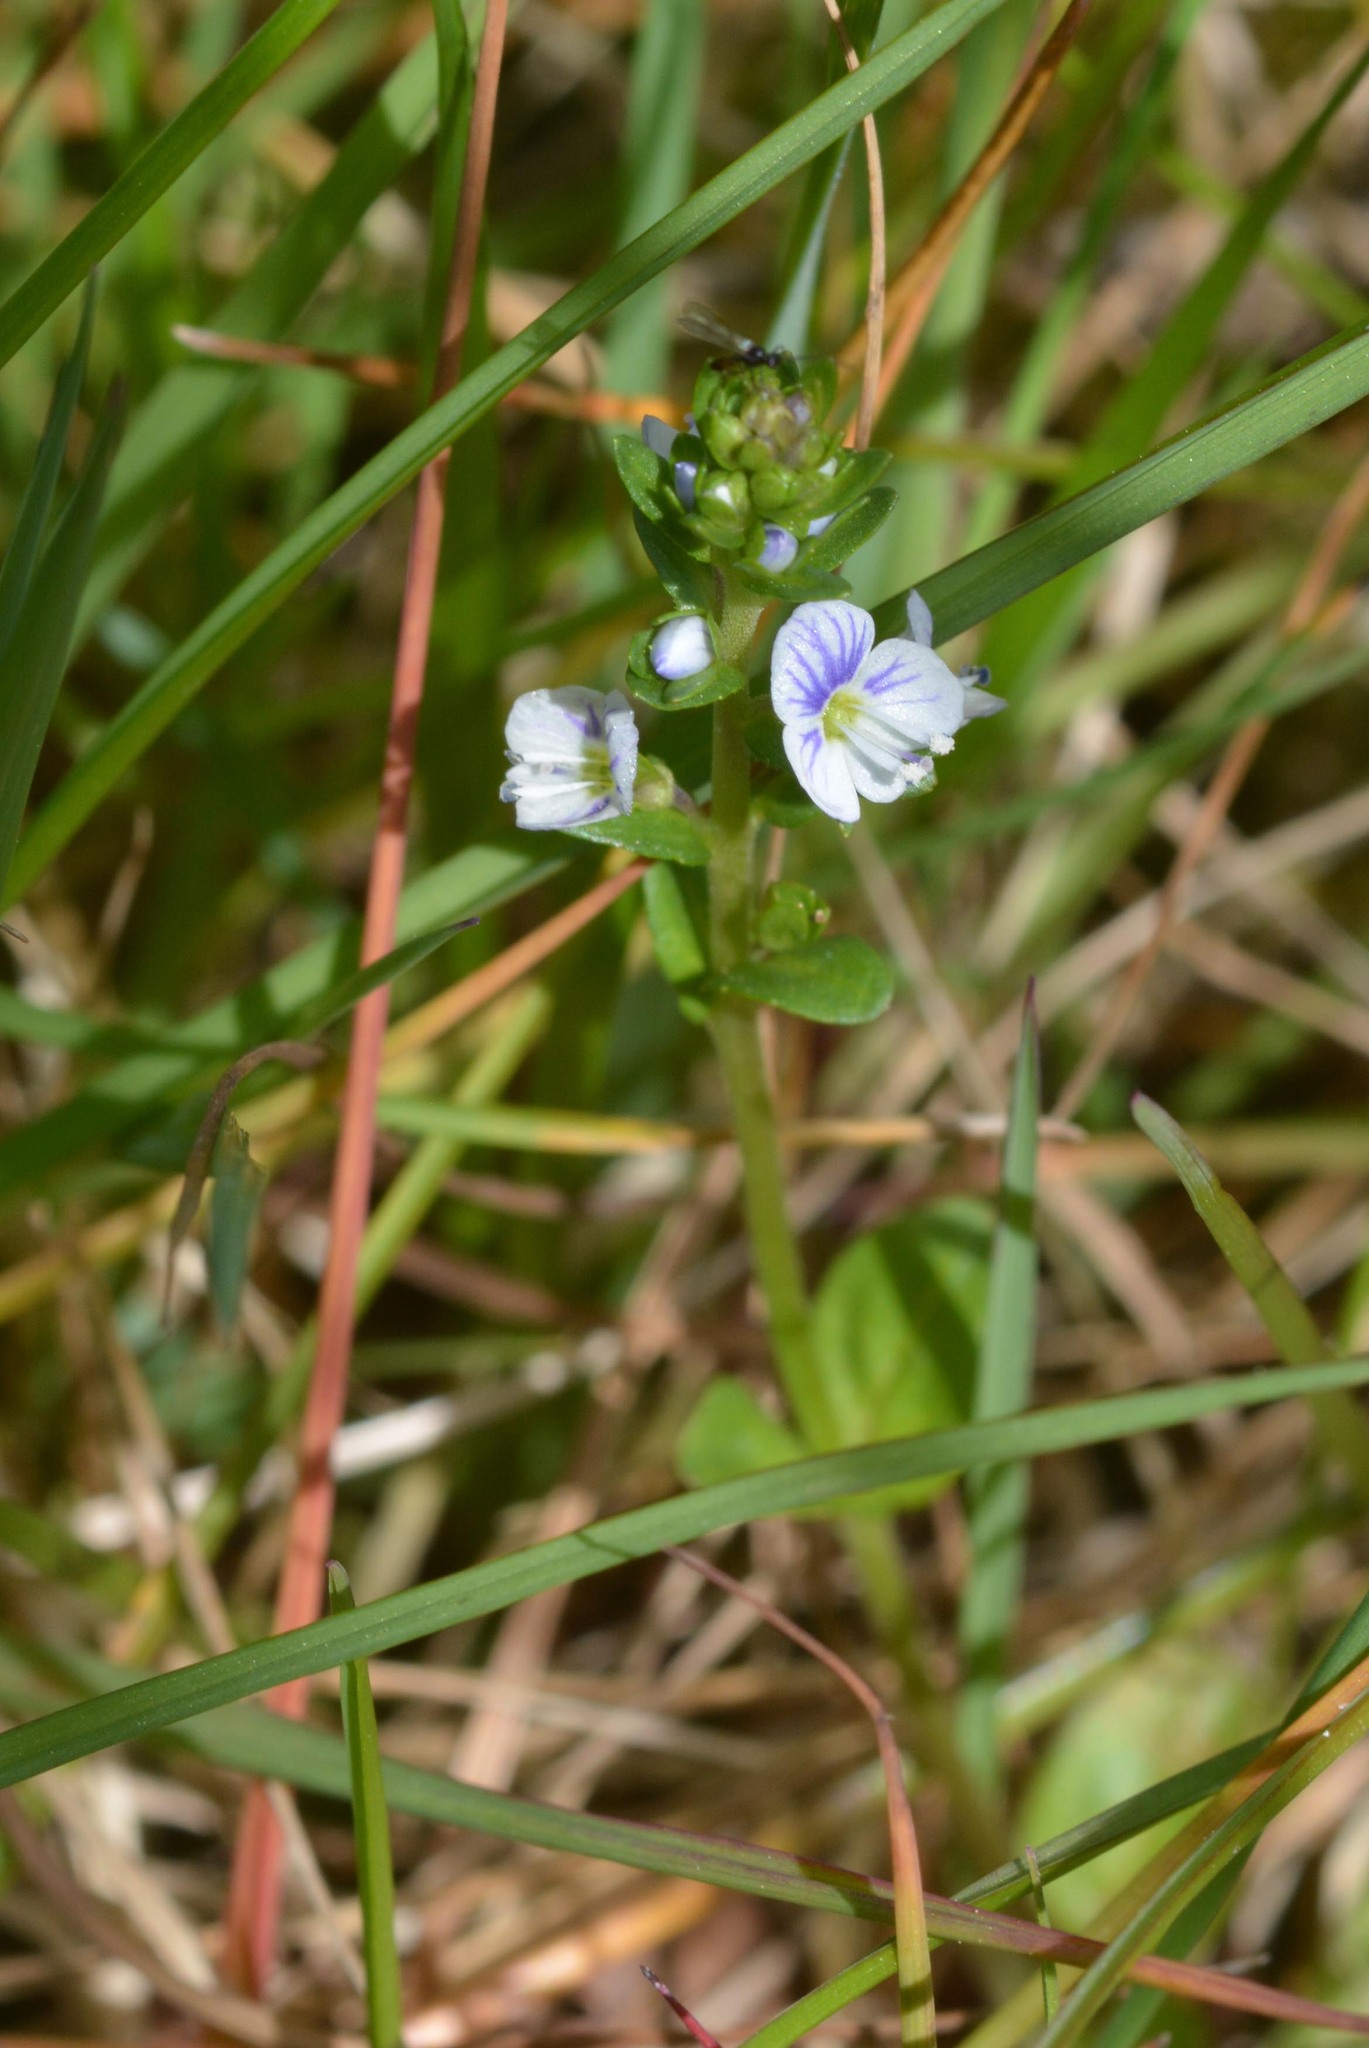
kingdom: Plantae
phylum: Tracheophyta
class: Magnoliopsida
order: Lamiales
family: Plantaginaceae
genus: Veronica
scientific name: Veronica serpyllifolia
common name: Thyme-leaved speedwell
